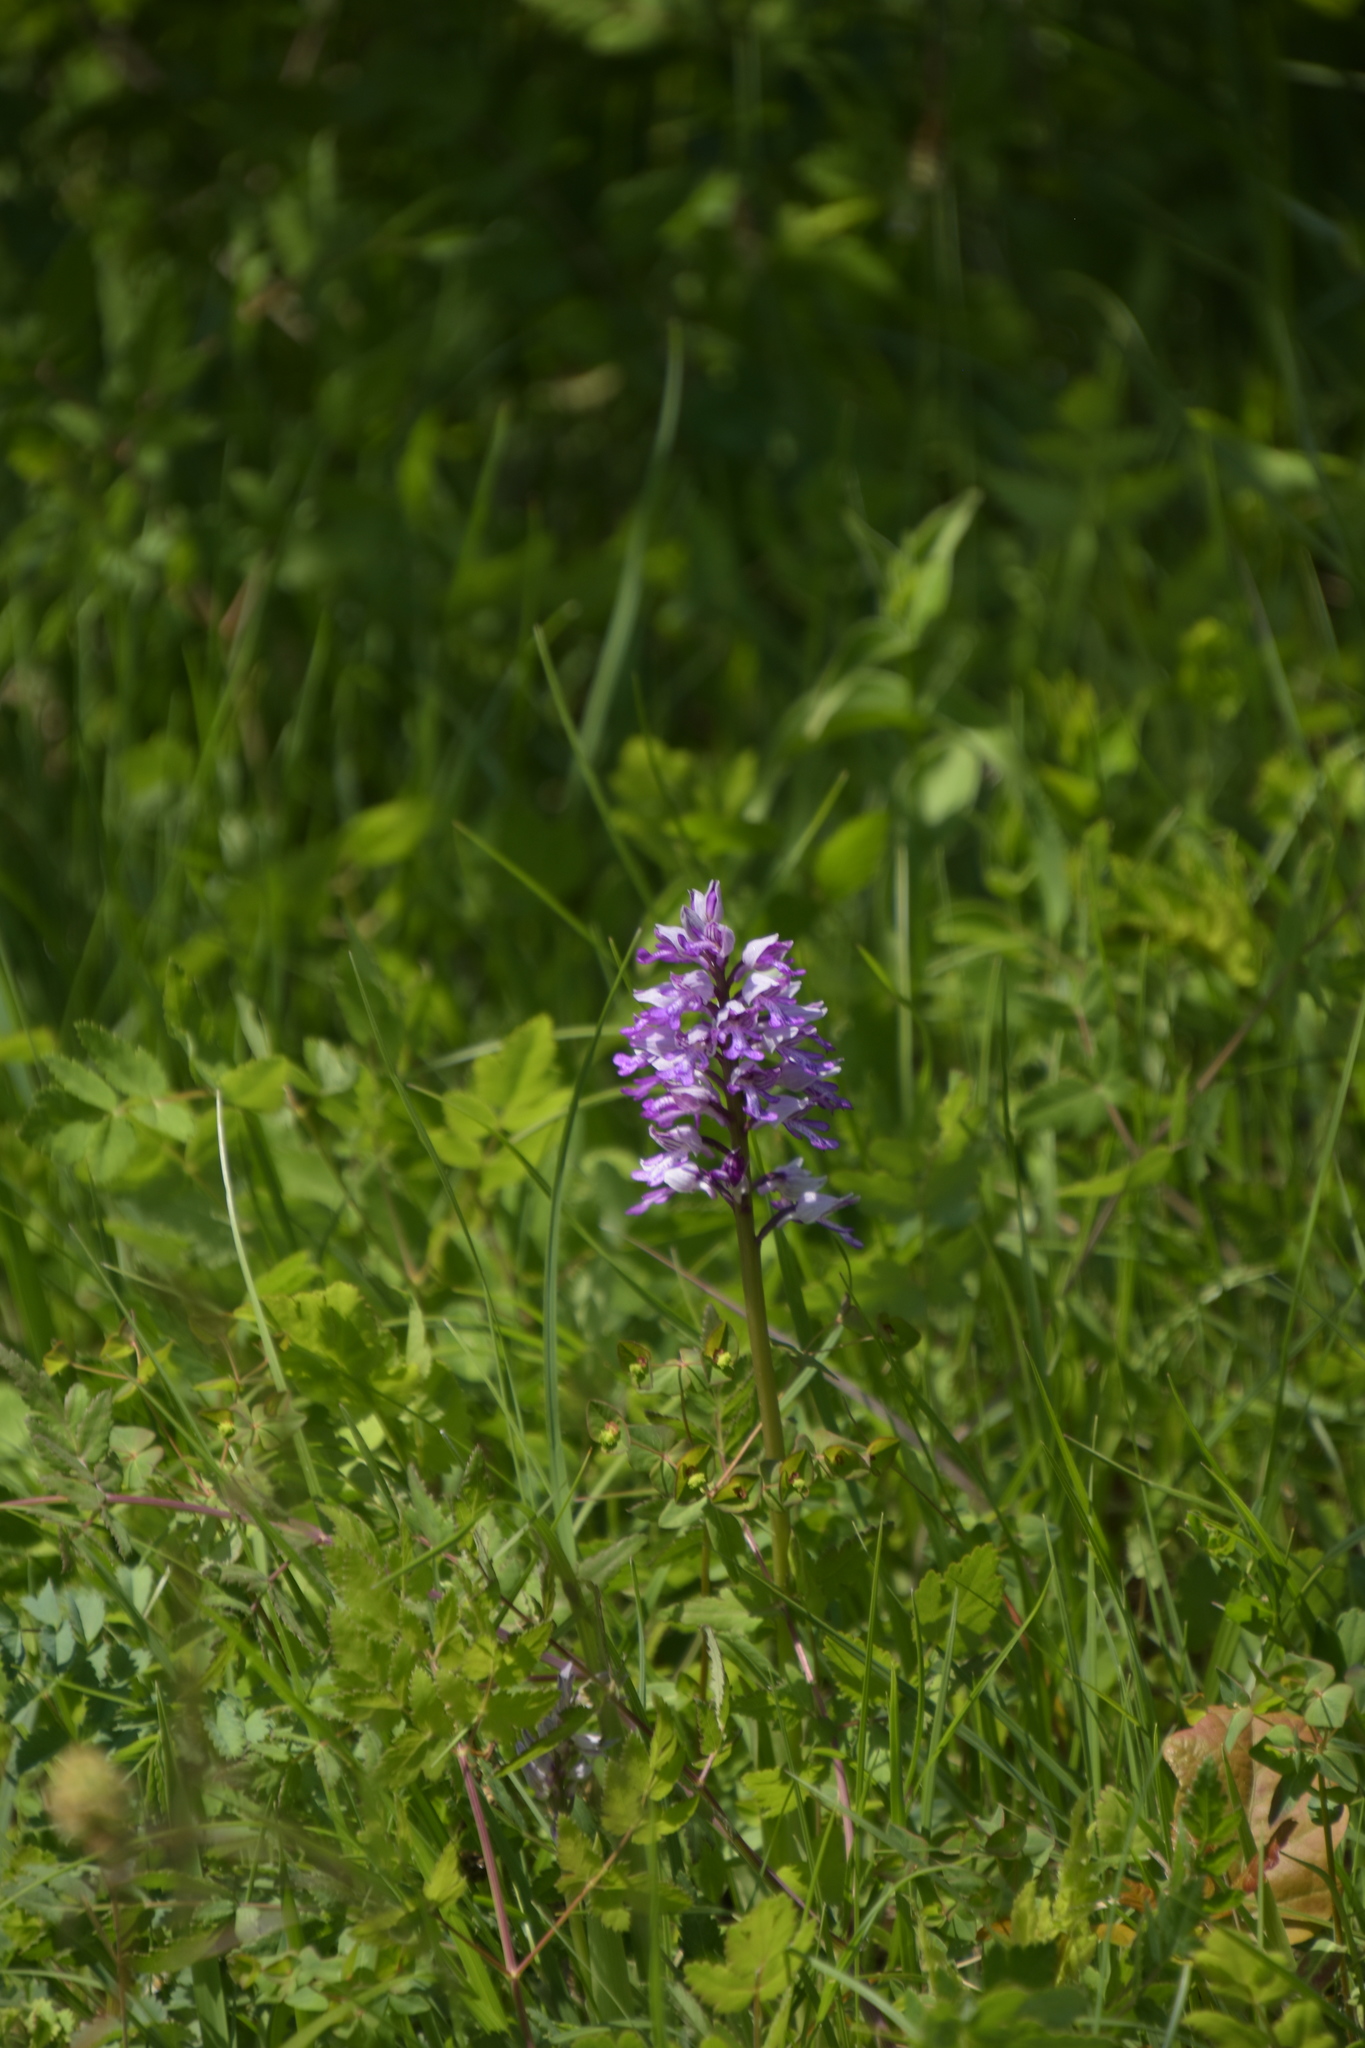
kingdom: Plantae
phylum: Tracheophyta
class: Liliopsida
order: Asparagales
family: Orchidaceae
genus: Orchis
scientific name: Orchis militaris
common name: Military orchid
